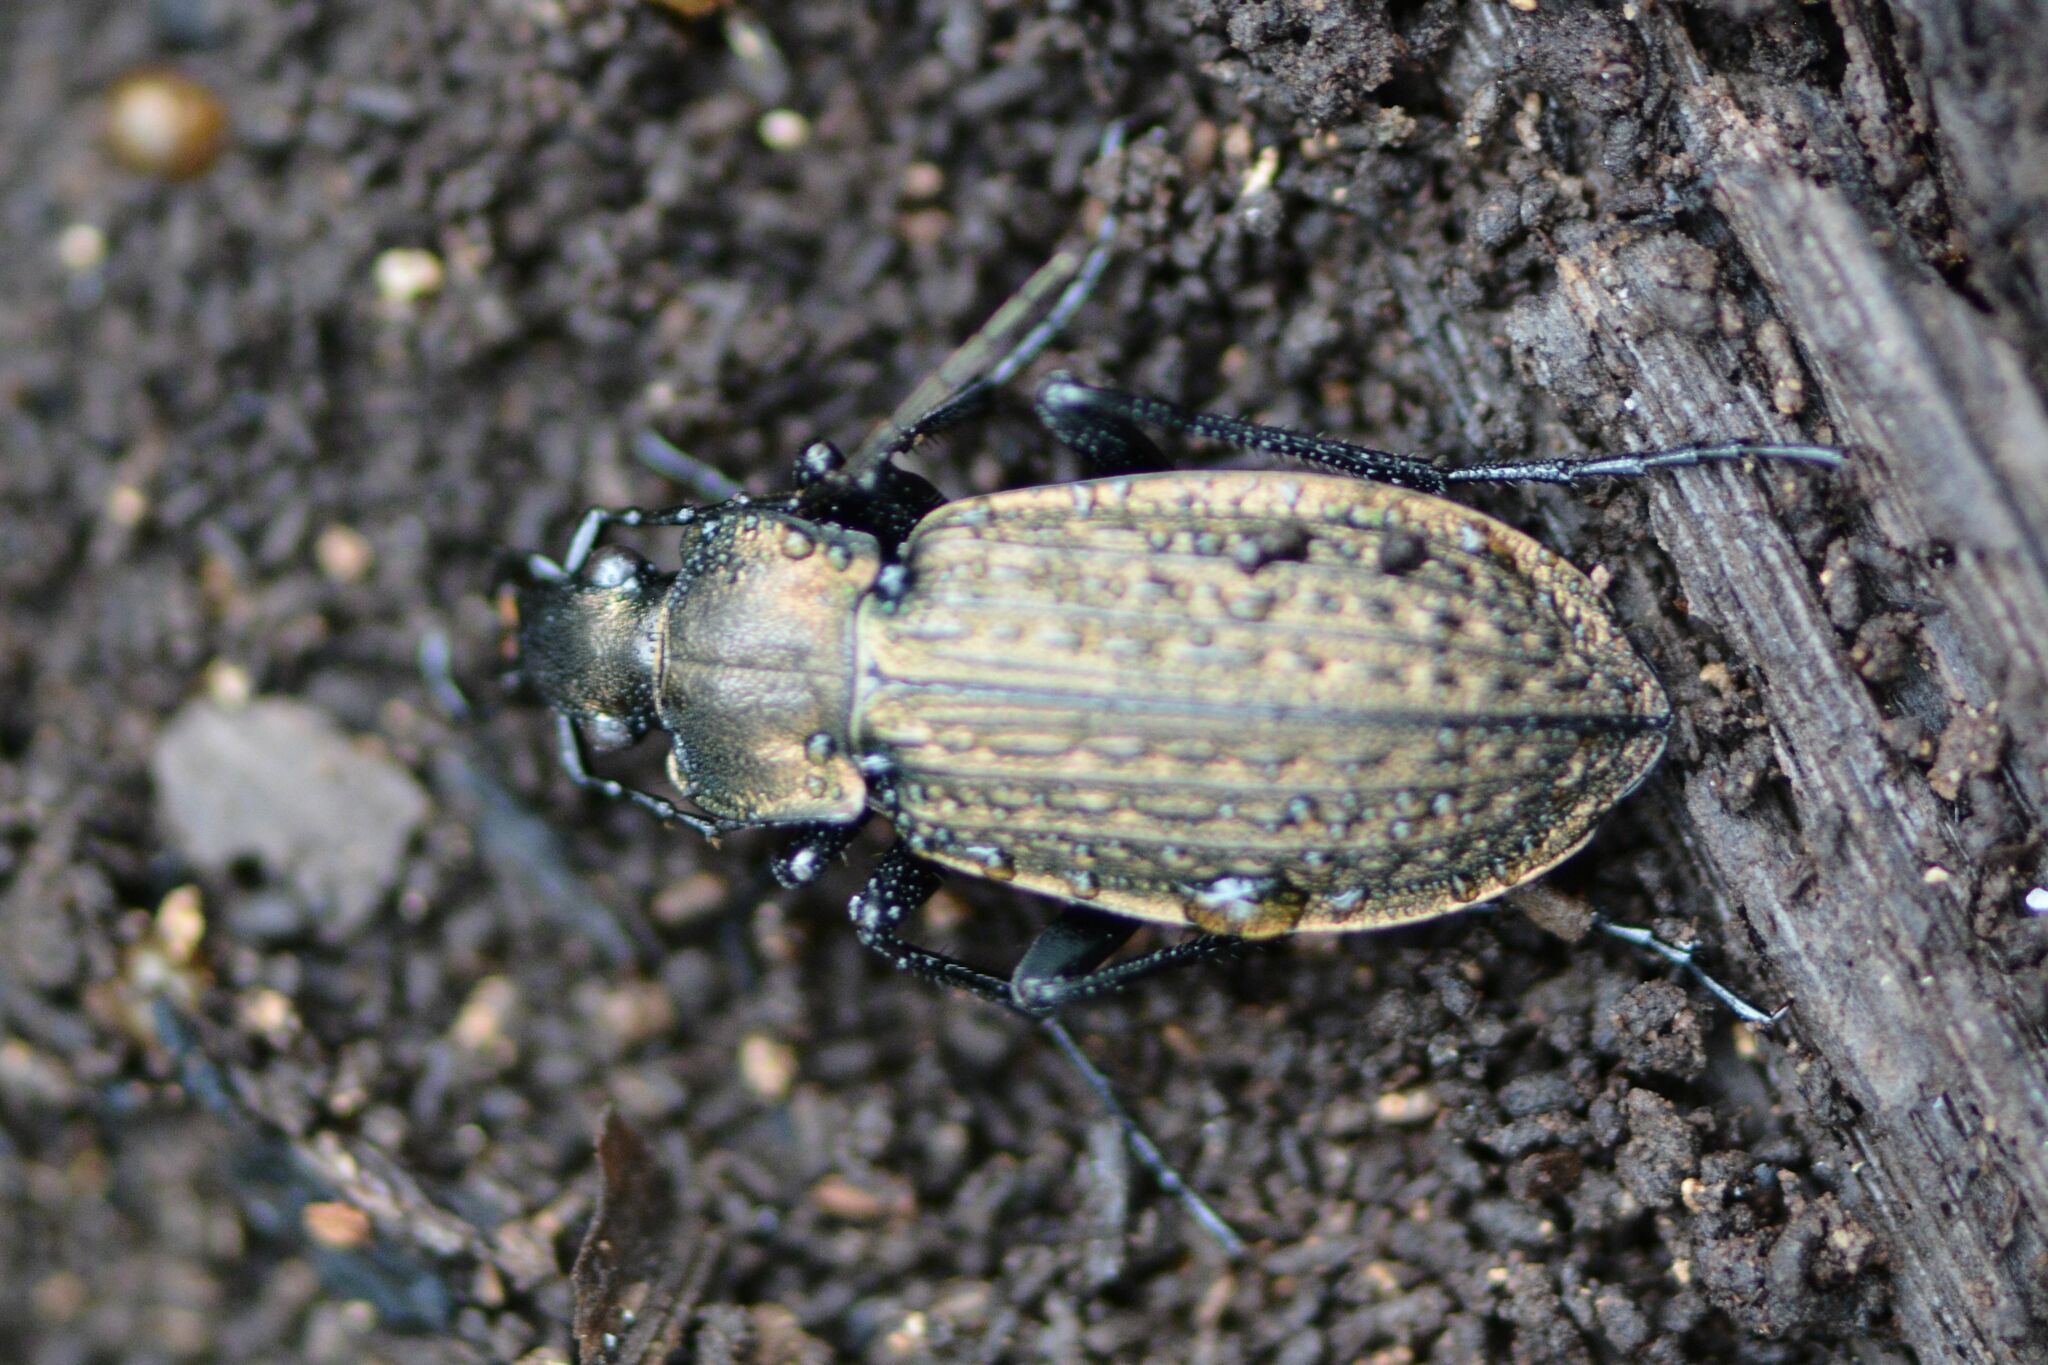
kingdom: Animalia
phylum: Arthropoda
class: Insecta
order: Coleoptera
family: Carabidae
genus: Carabus
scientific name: Carabus granulatus
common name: Granulate ground beetle
